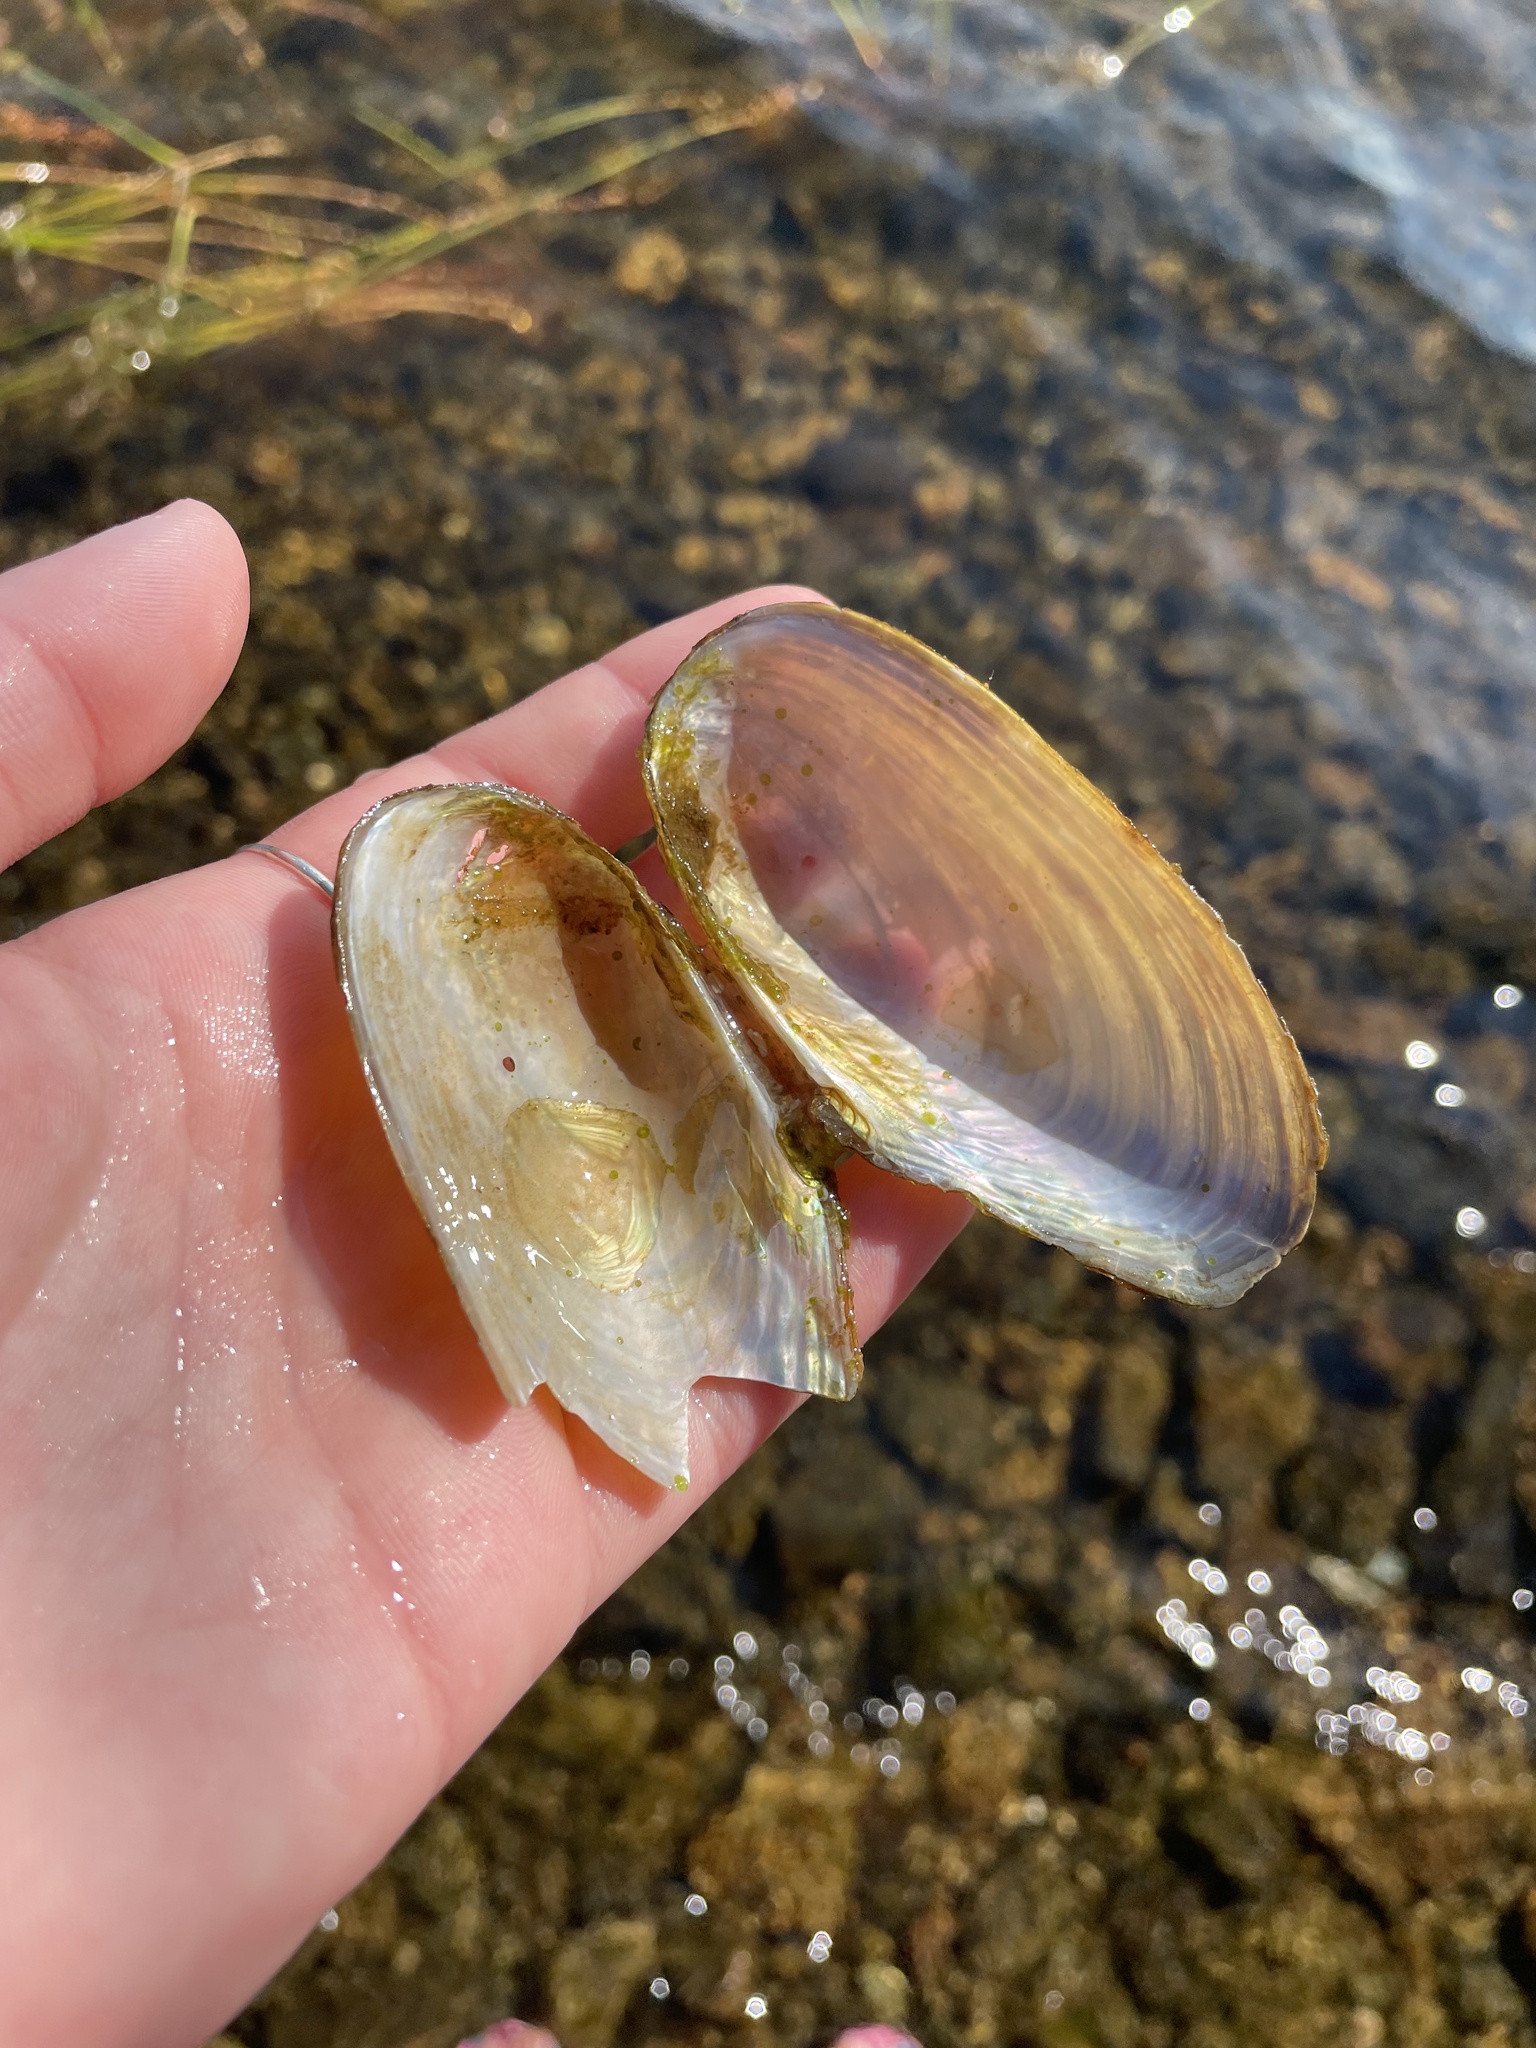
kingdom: Animalia
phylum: Mollusca
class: Bivalvia
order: Unionida
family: Unionidae
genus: Pyganodon
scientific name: Pyganodon cataracta
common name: Eastern floater
